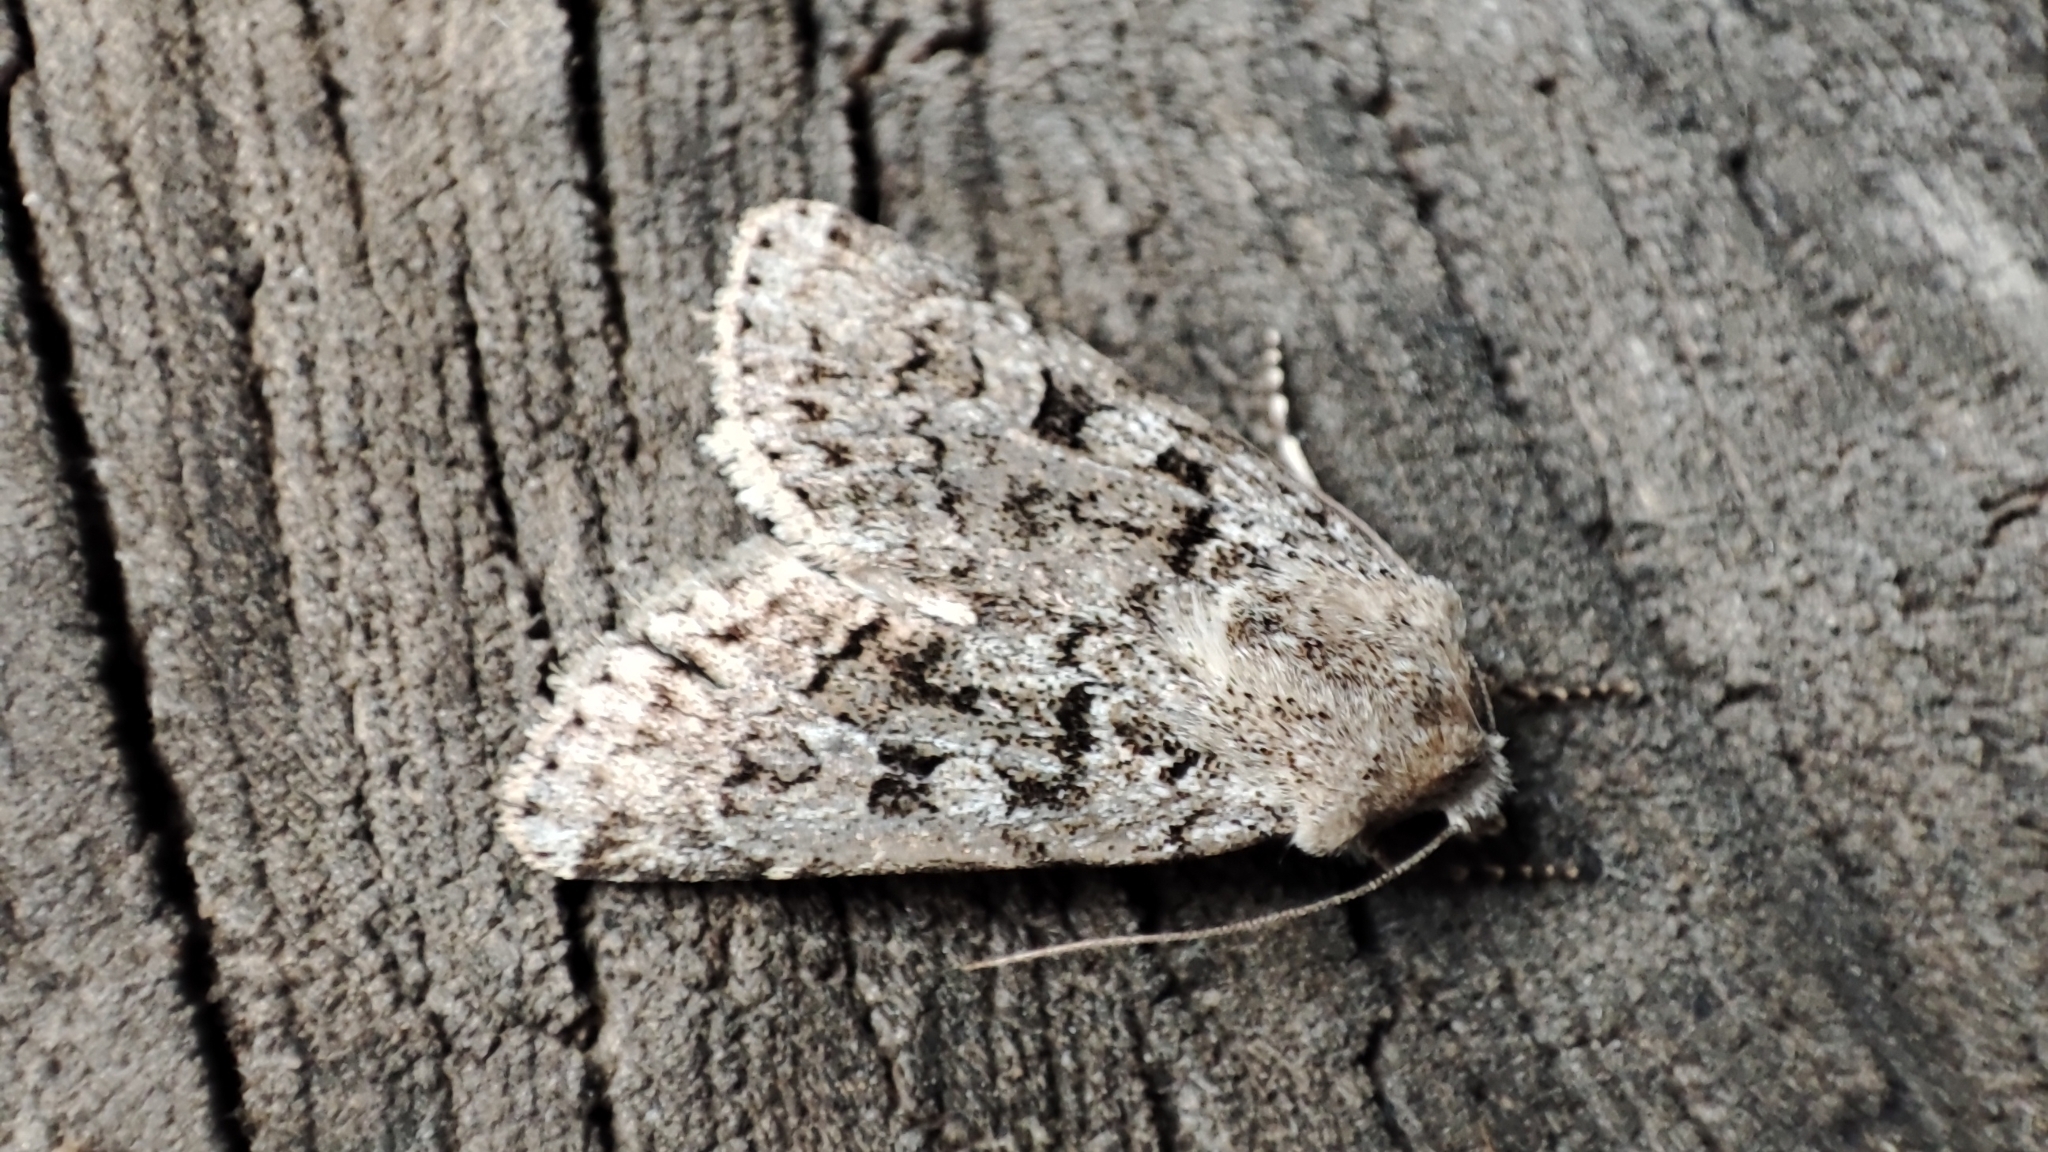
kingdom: Animalia
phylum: Arthropoda
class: Insecta
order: Lepidoptera
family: Noctuidae
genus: Euxoa
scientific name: Euxoa deserta
